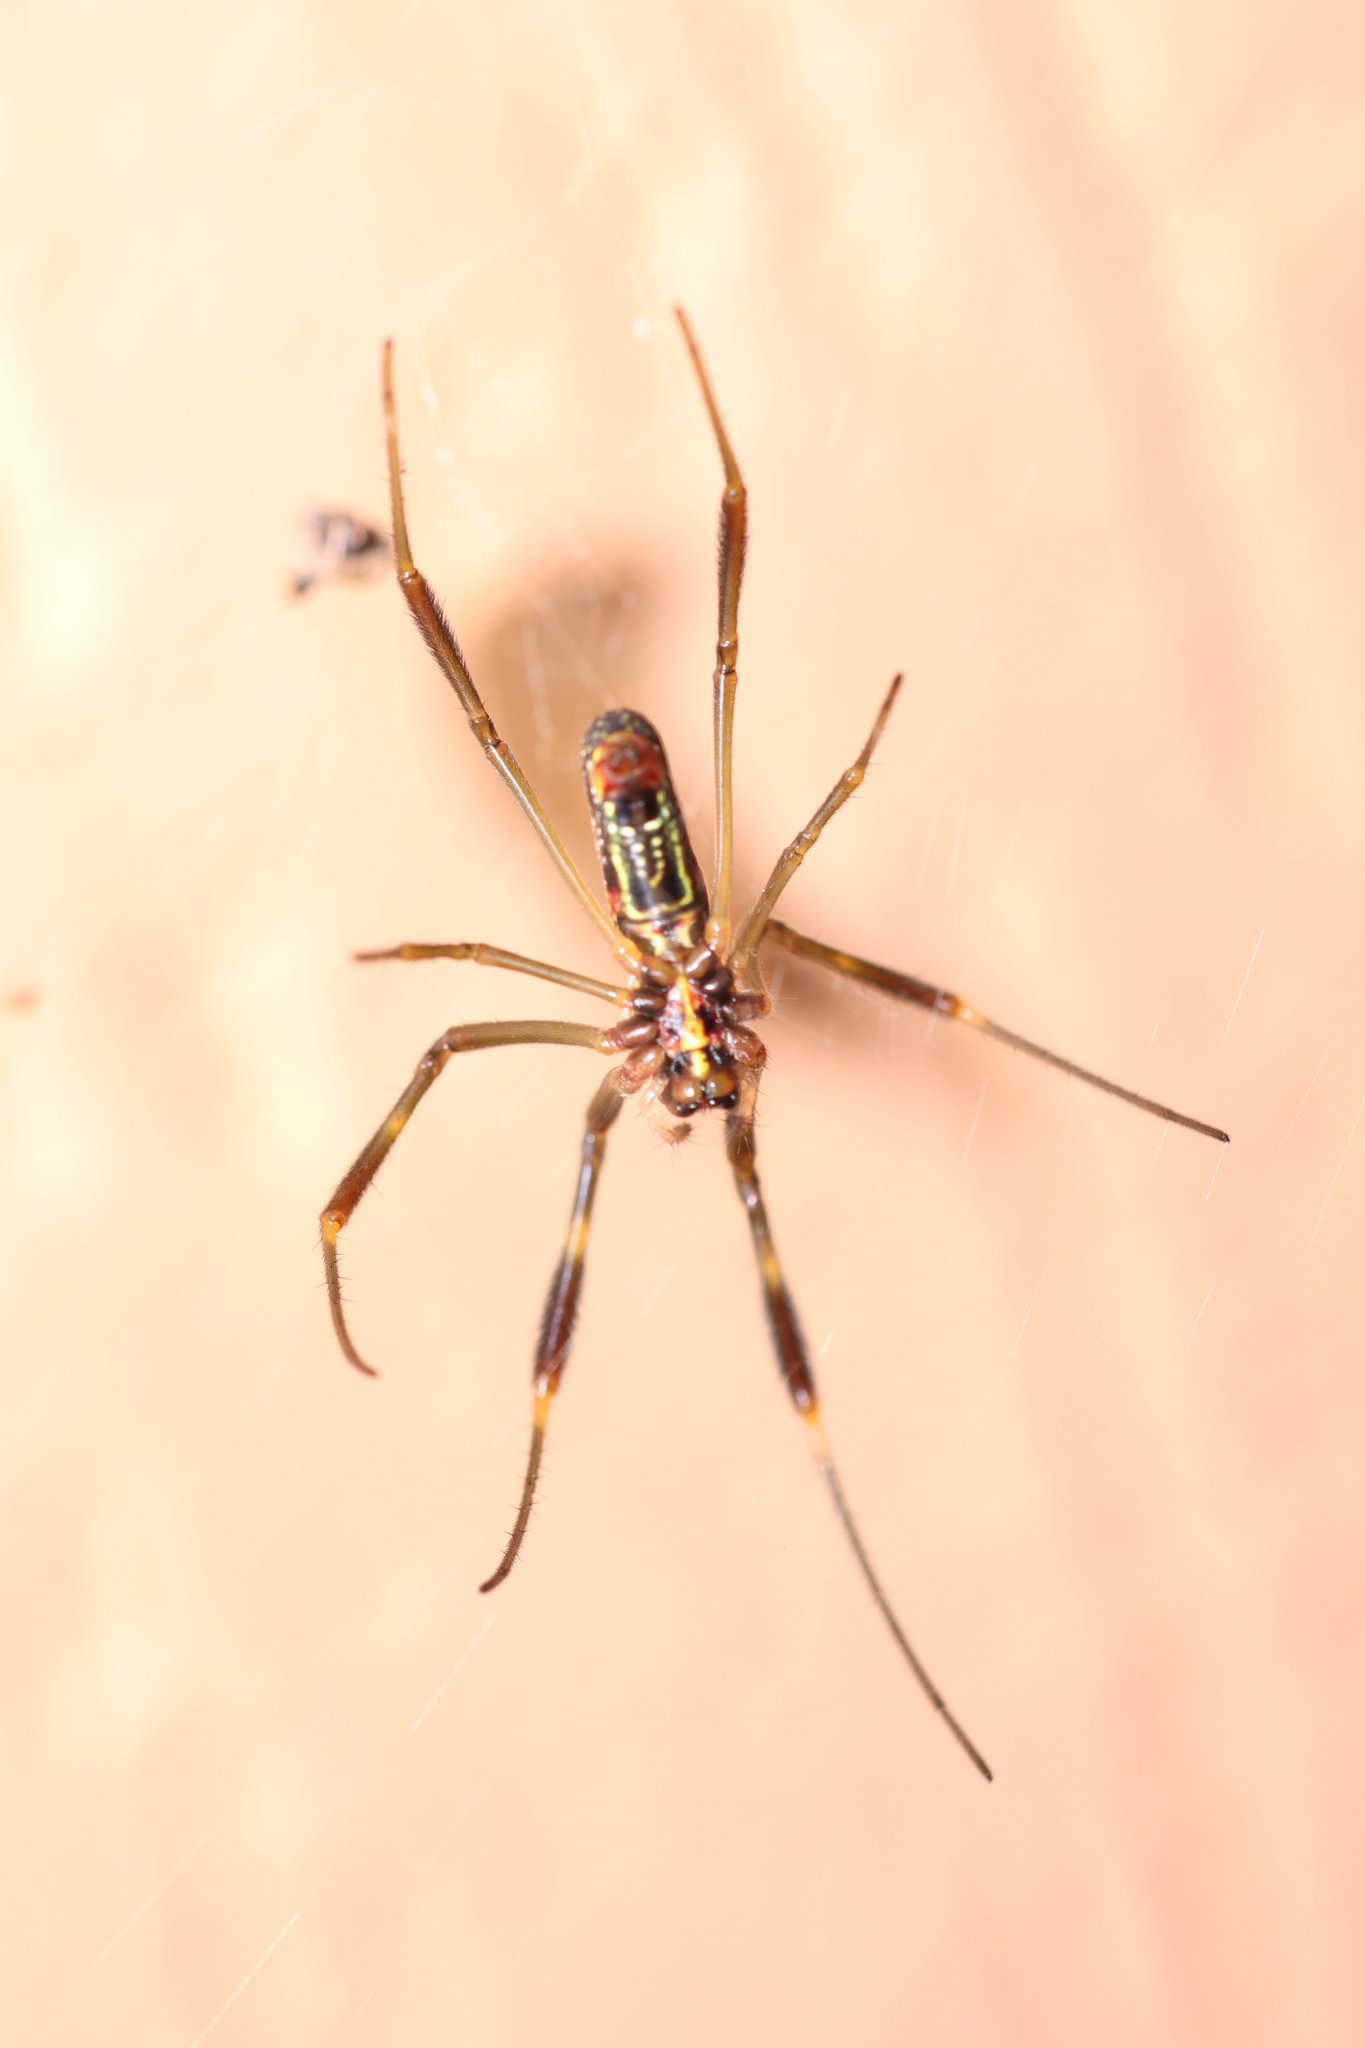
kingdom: Animalia
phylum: Arthropoda
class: Arachnida
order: Araneae
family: Araneidae
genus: Trichonephila
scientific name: Trichonephila clavipes
